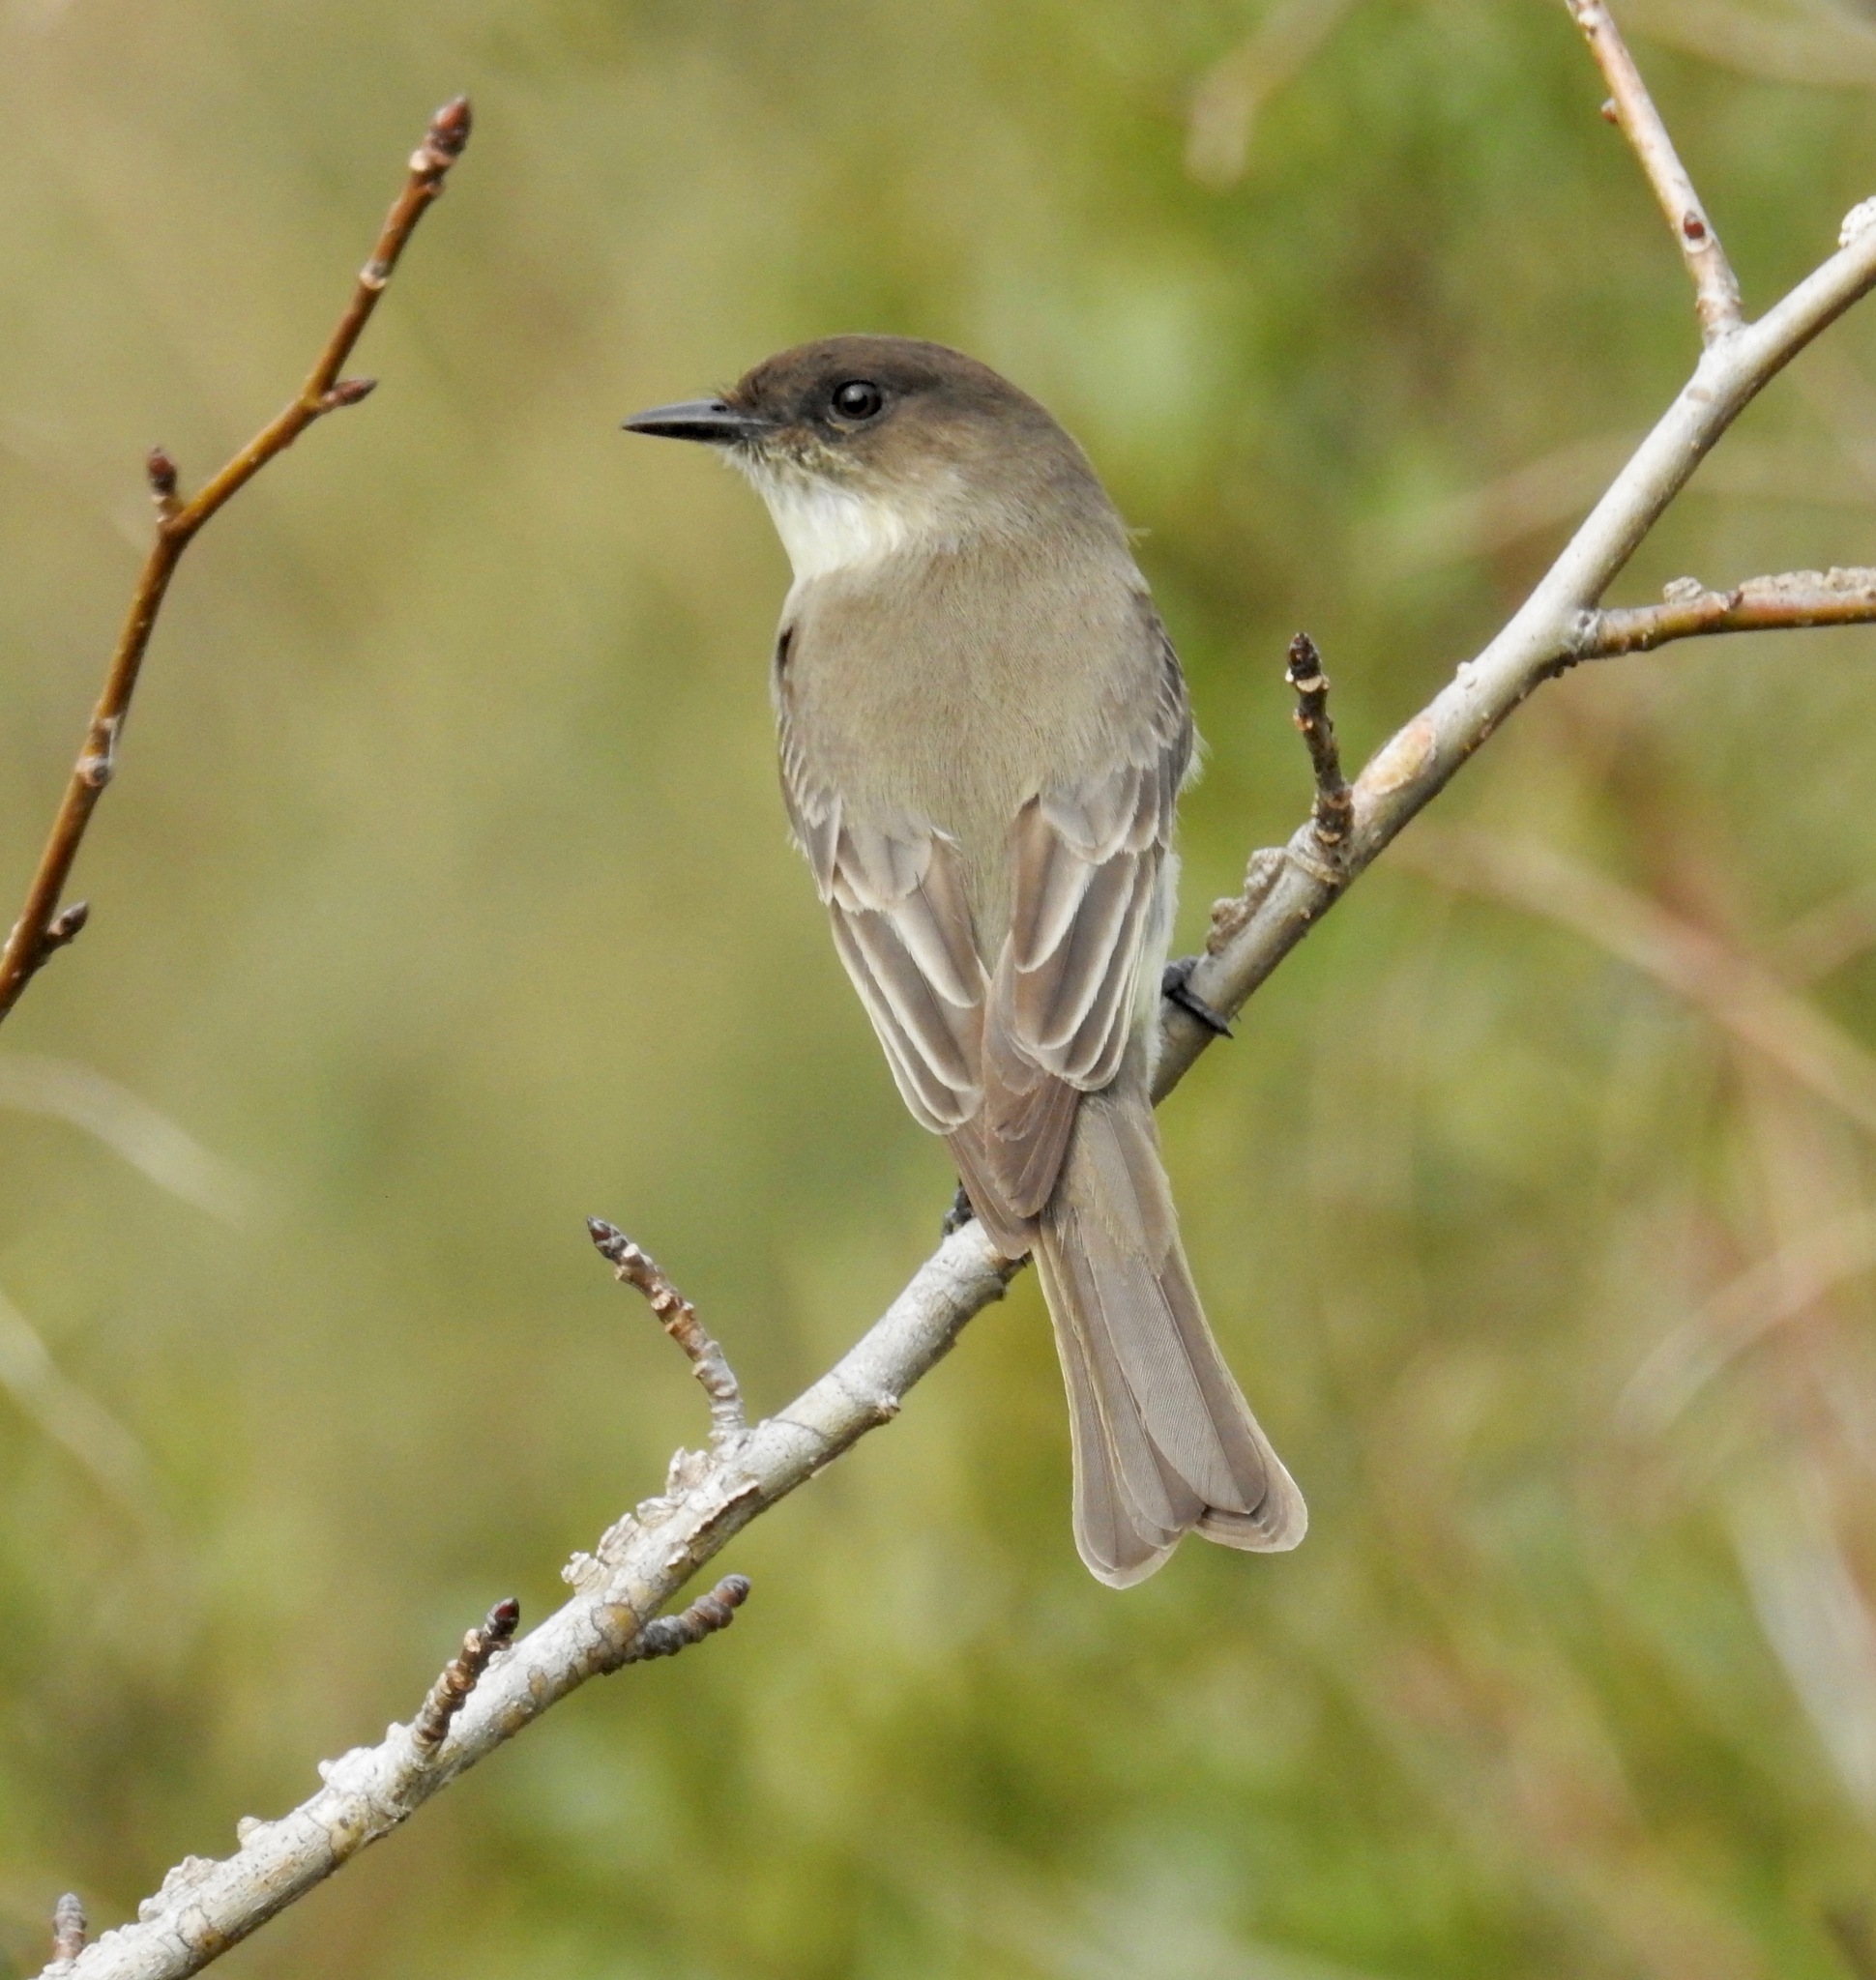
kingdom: Animalia
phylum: Chordata
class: Aves
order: Passeriformes
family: Tyrannidae
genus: Sayornis
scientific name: Sayornis phoebe
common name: Eastern phoebe
